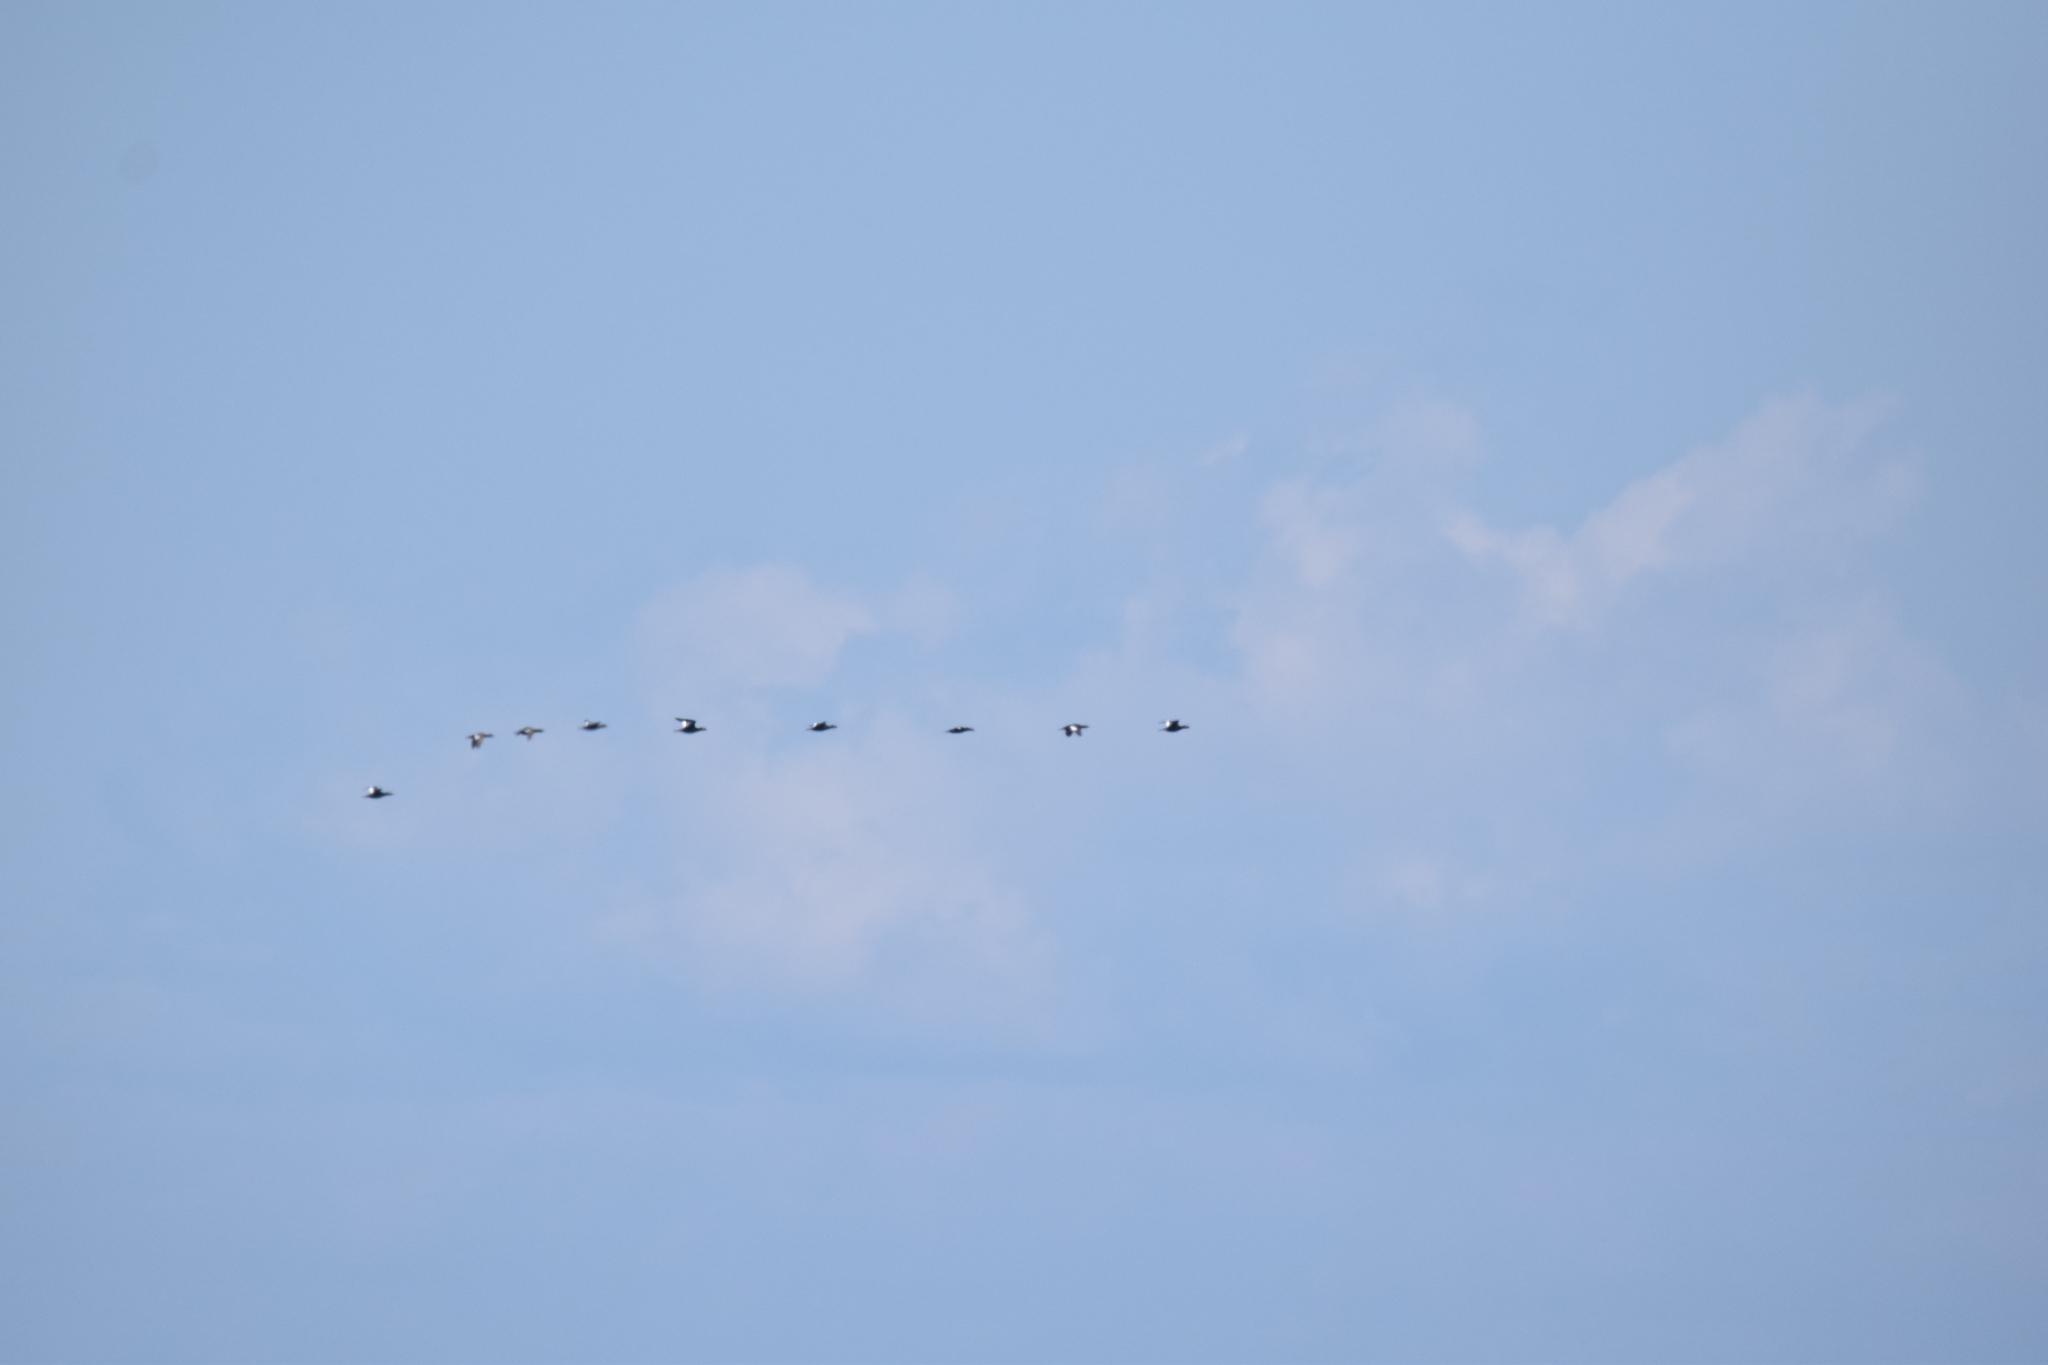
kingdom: Animalia
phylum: Chordata
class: Aves
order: Anseriformes
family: Anatidae
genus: Melanitta
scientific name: Melanitta deglandi
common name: White-winged scoter
